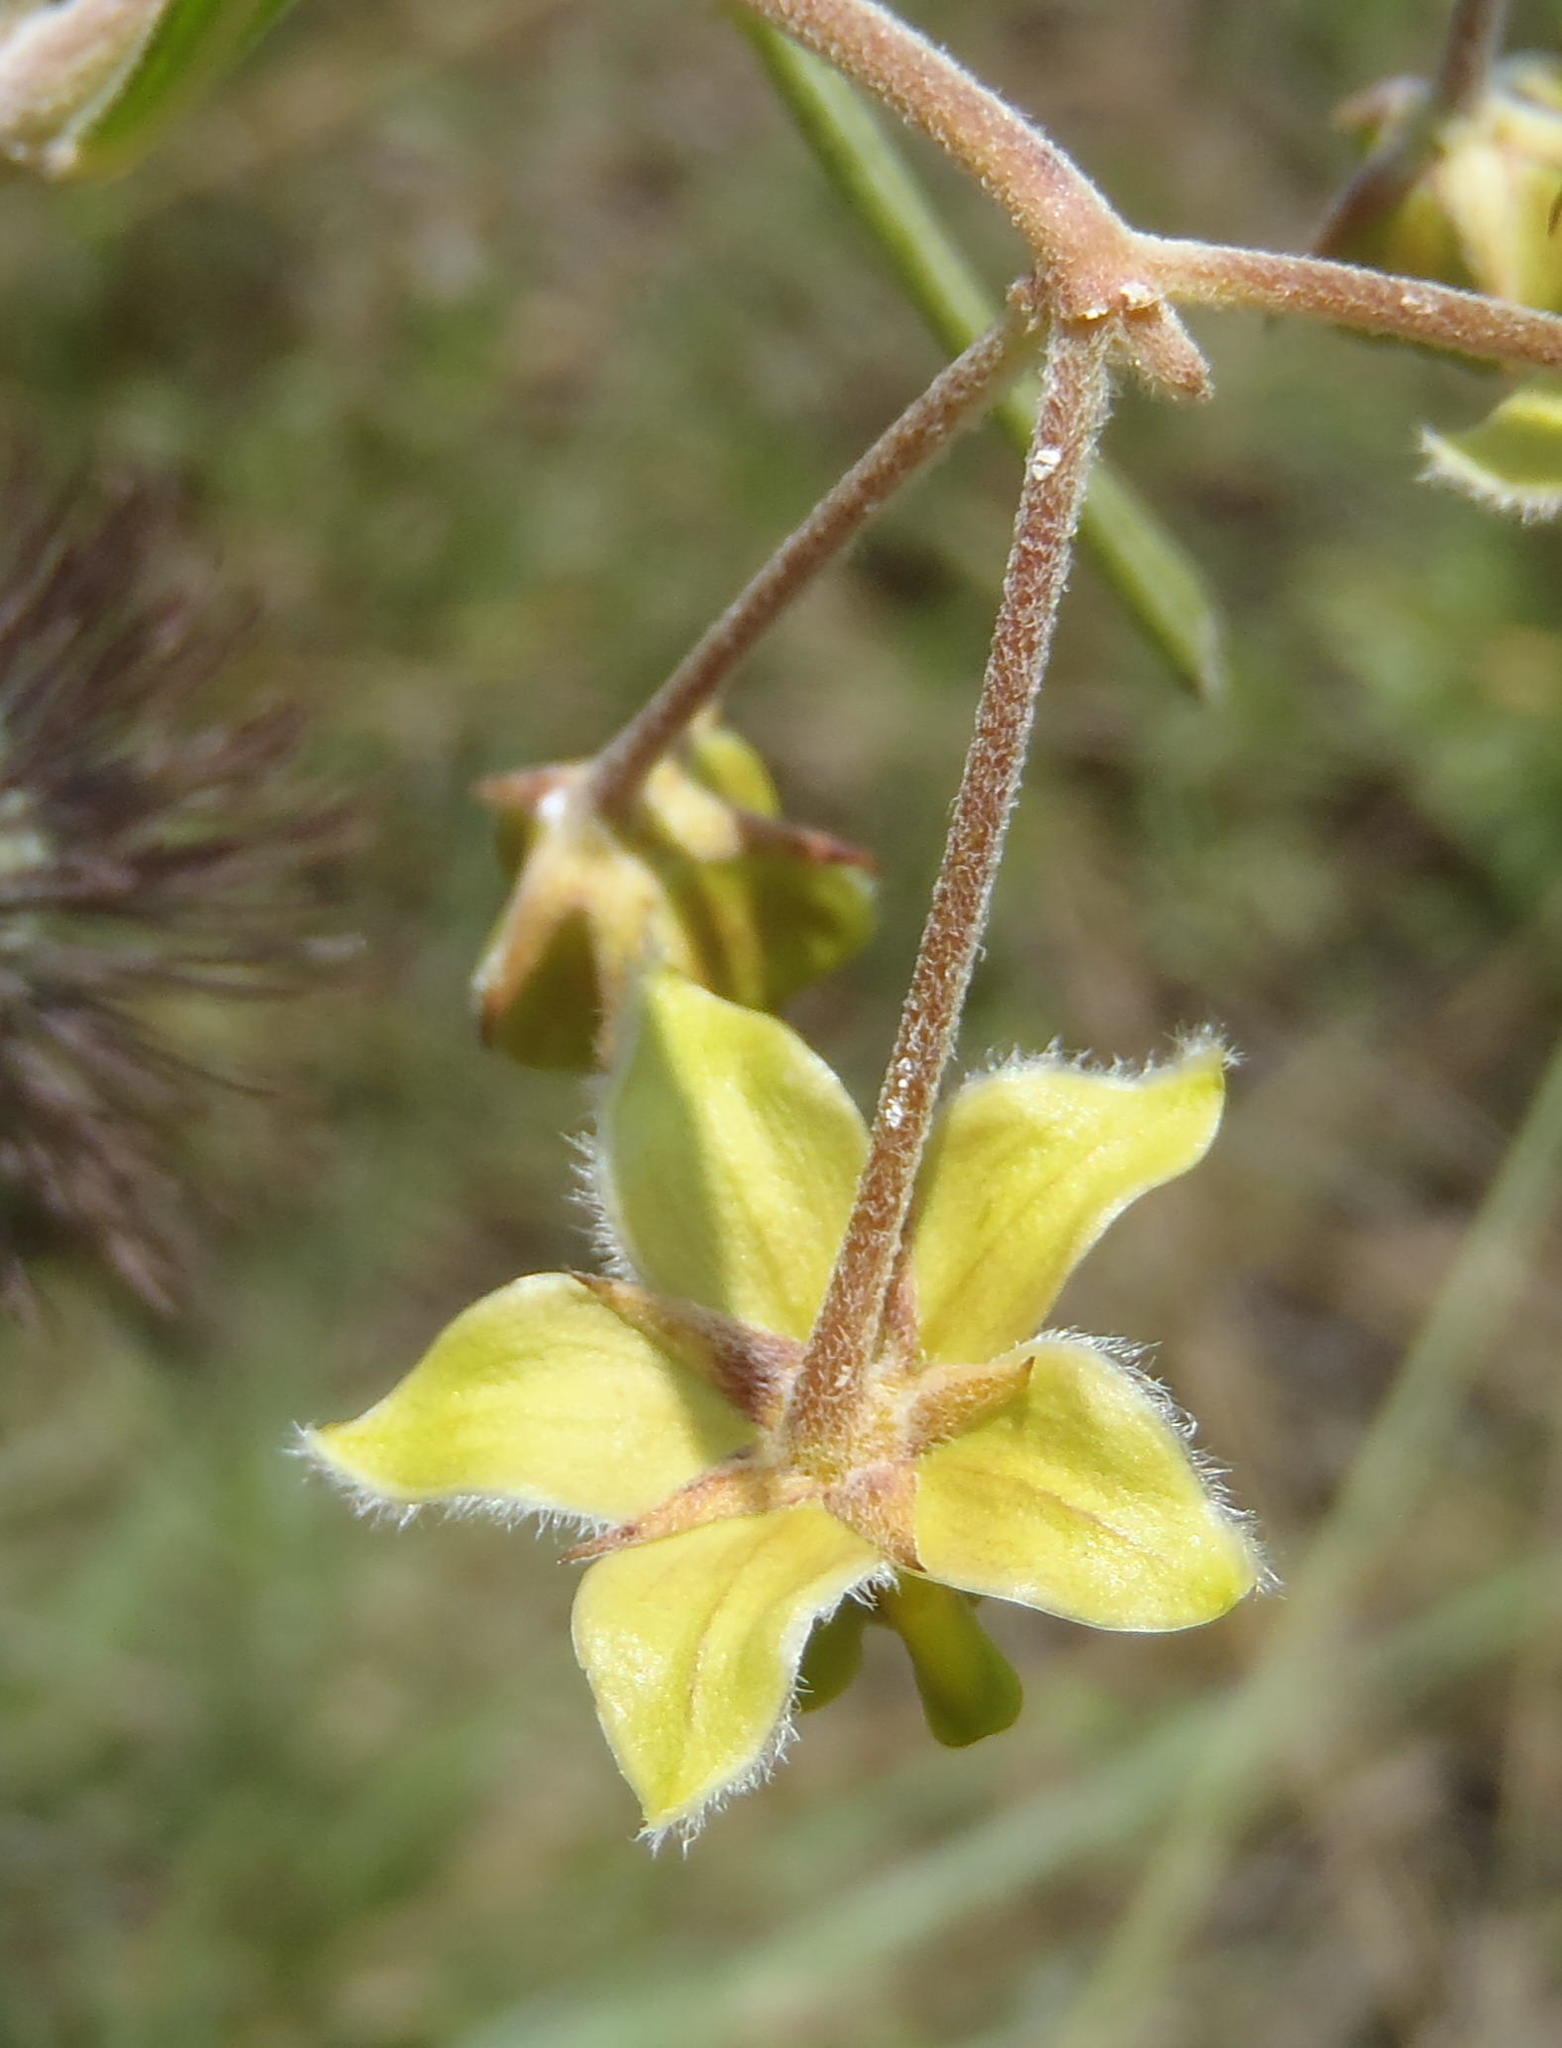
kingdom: Plantae
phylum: Tracheophyta
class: Magnoliopsida
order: Gentianales
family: Apocynaceae
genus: Gomphocarpus
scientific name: Gomphocarpus tomentosus
